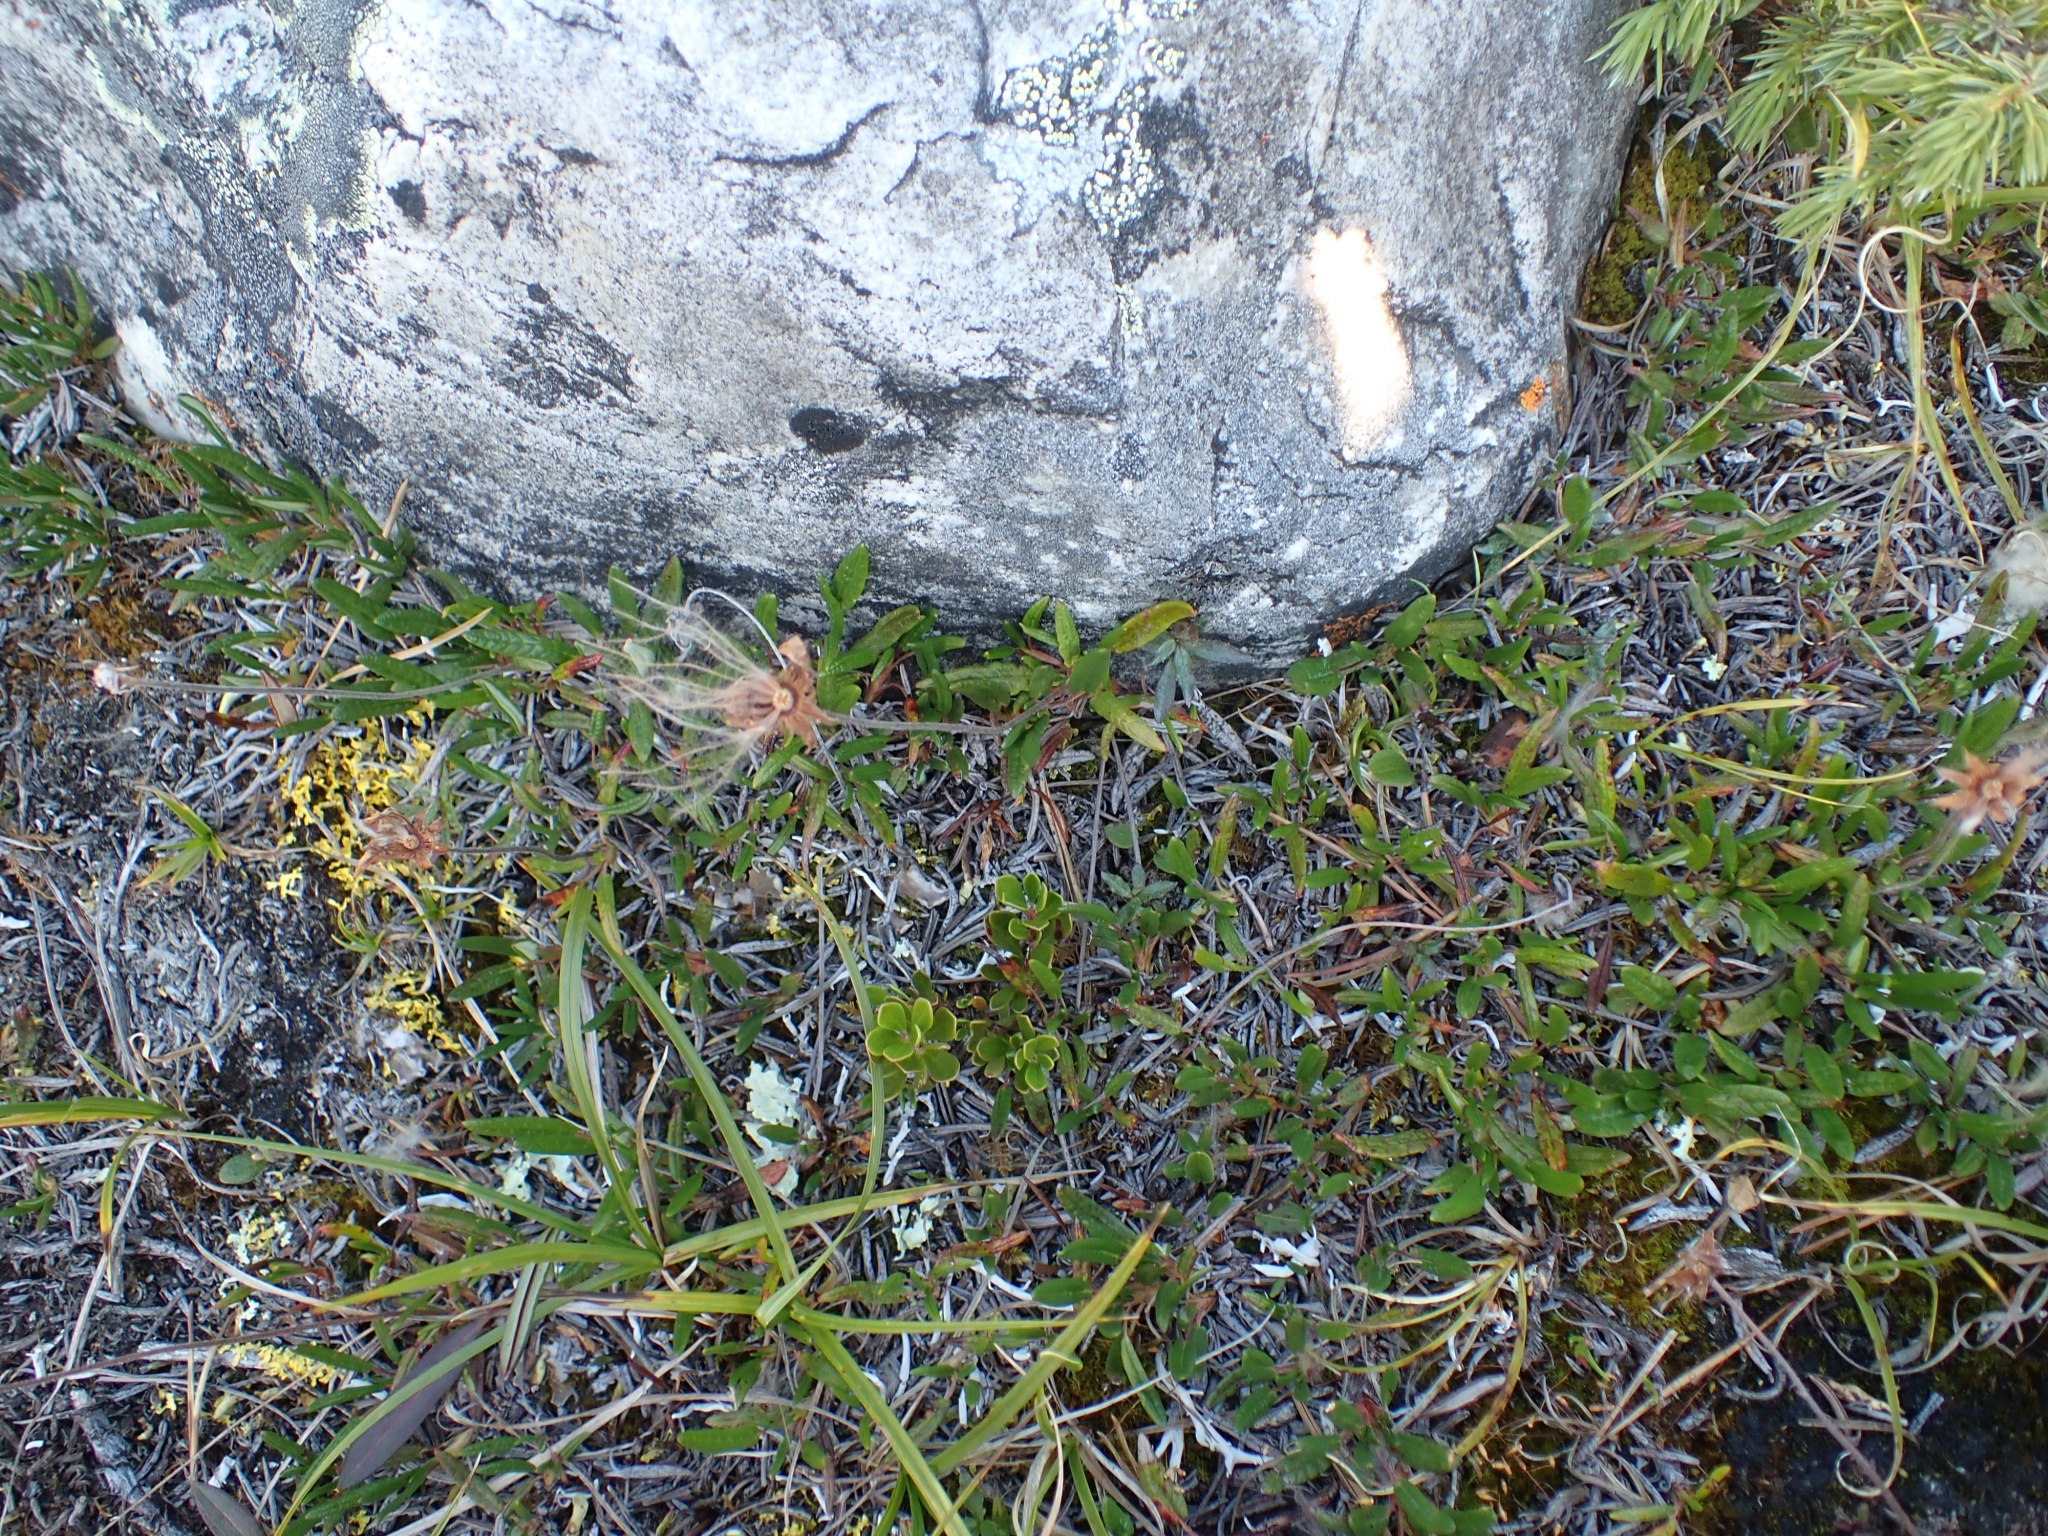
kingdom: Plantae
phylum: Tracheophyta
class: Magnoliopsida
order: Rosales
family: Rosaceae
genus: Dryas
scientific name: Dryas integrifolia
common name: Entire-leaved mountain avens
